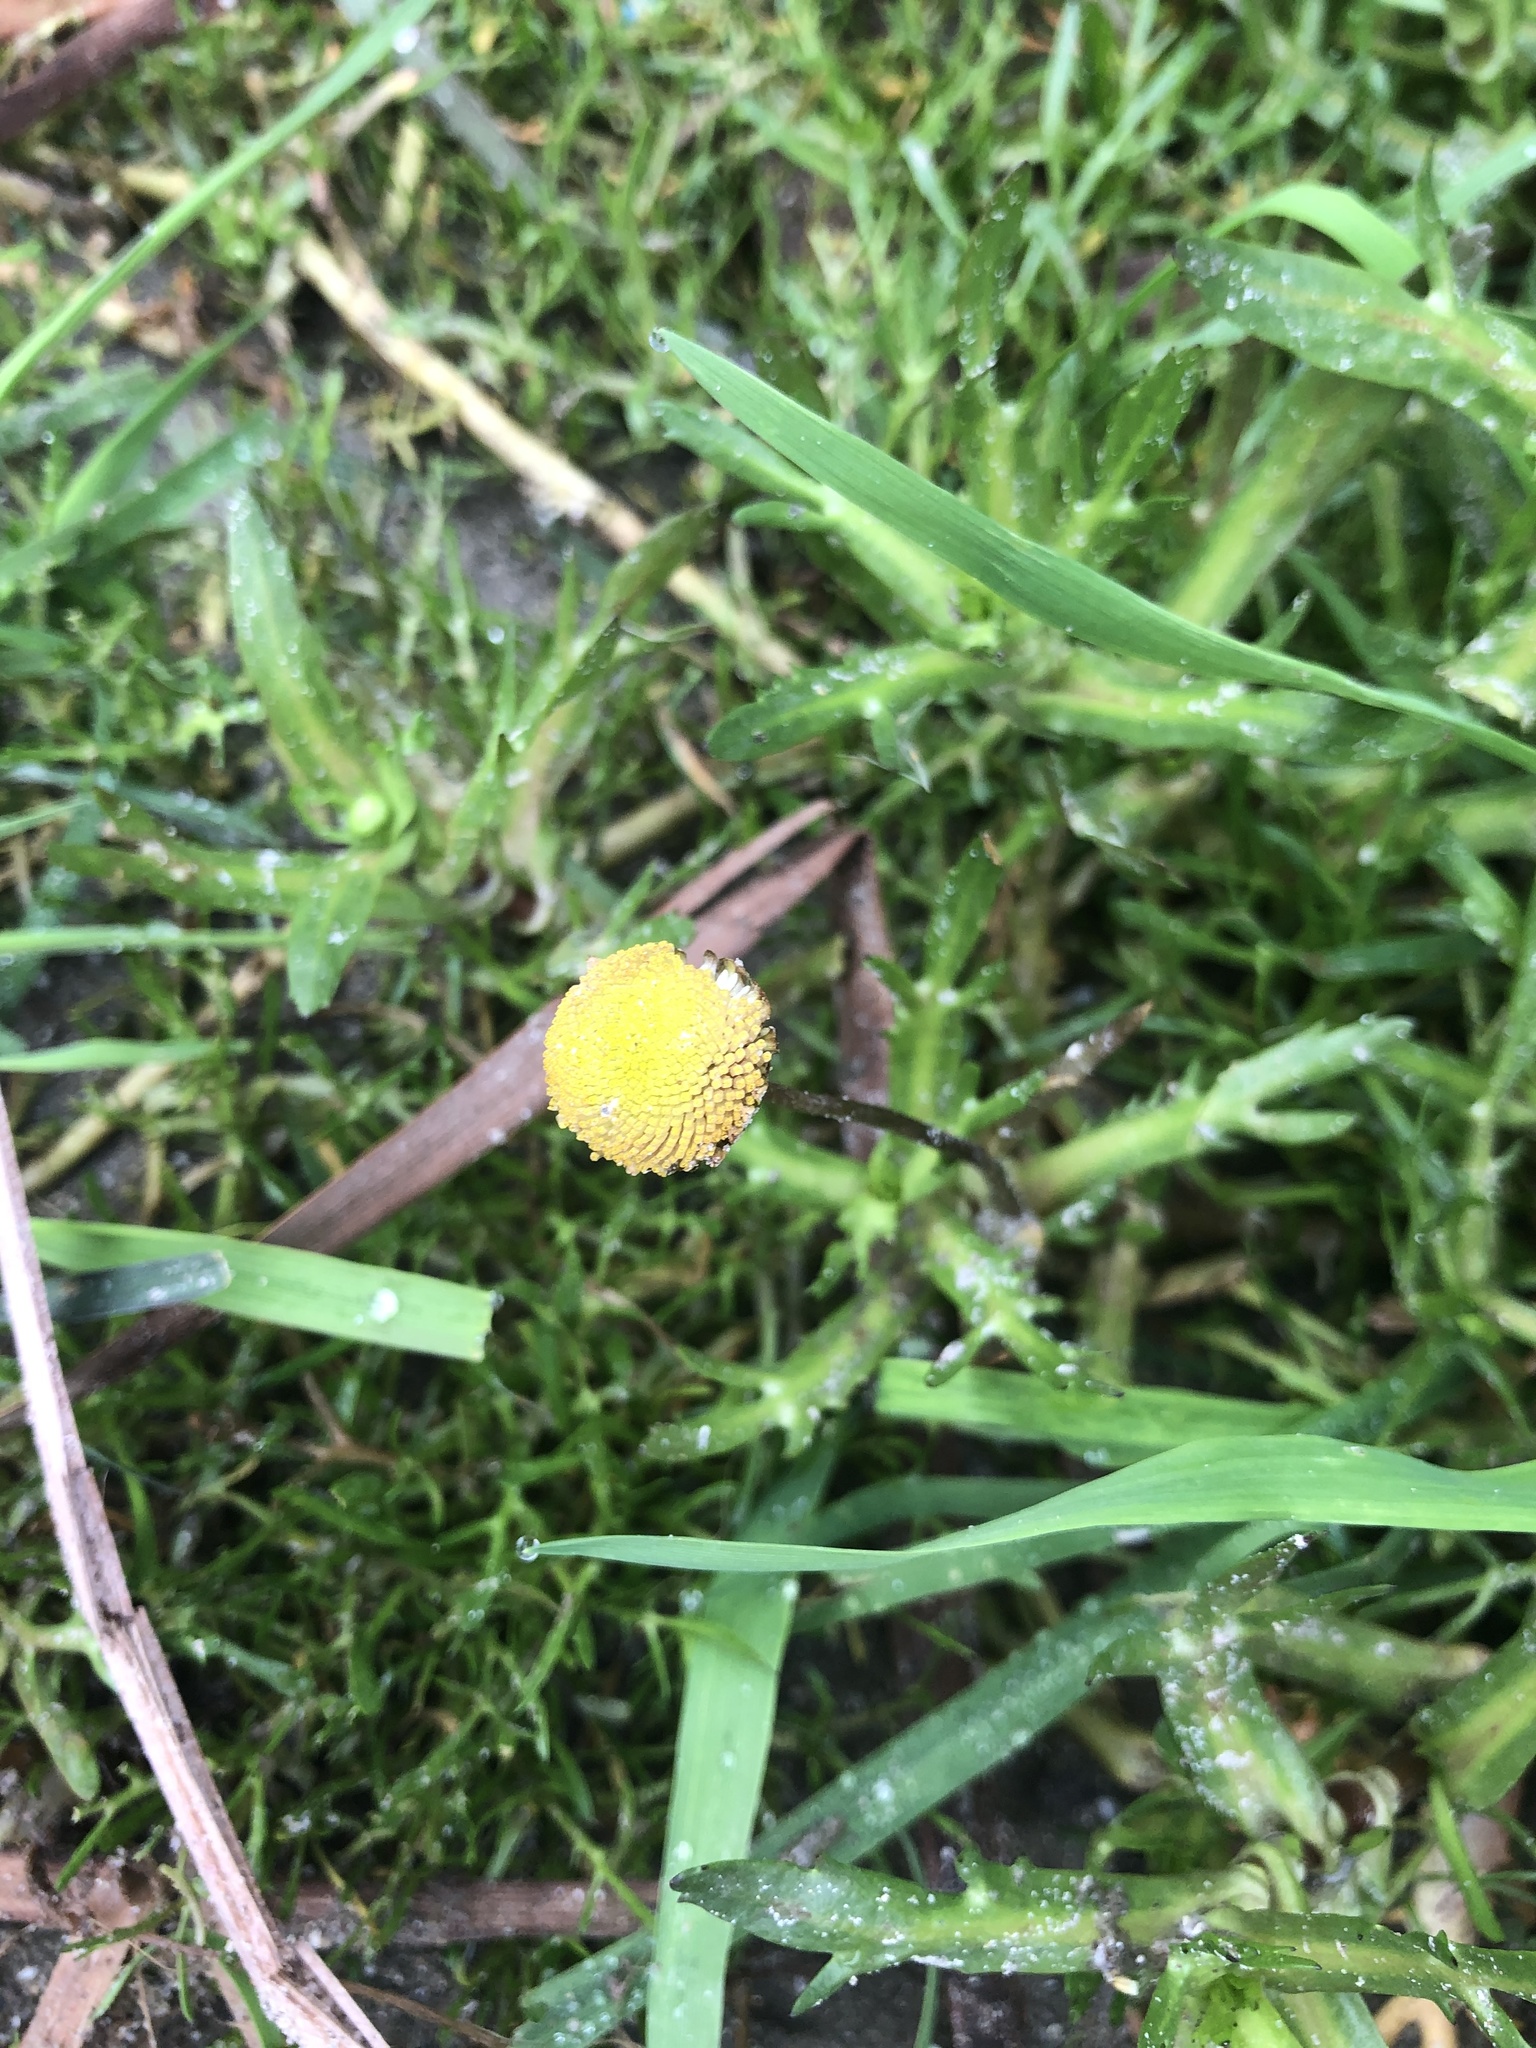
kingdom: Plantae
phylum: Tracheophyta
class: Magnoliopsida
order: Asterales
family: Asteraceae
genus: Cotula
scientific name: Cotula coronopifolia
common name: Buttonweed
